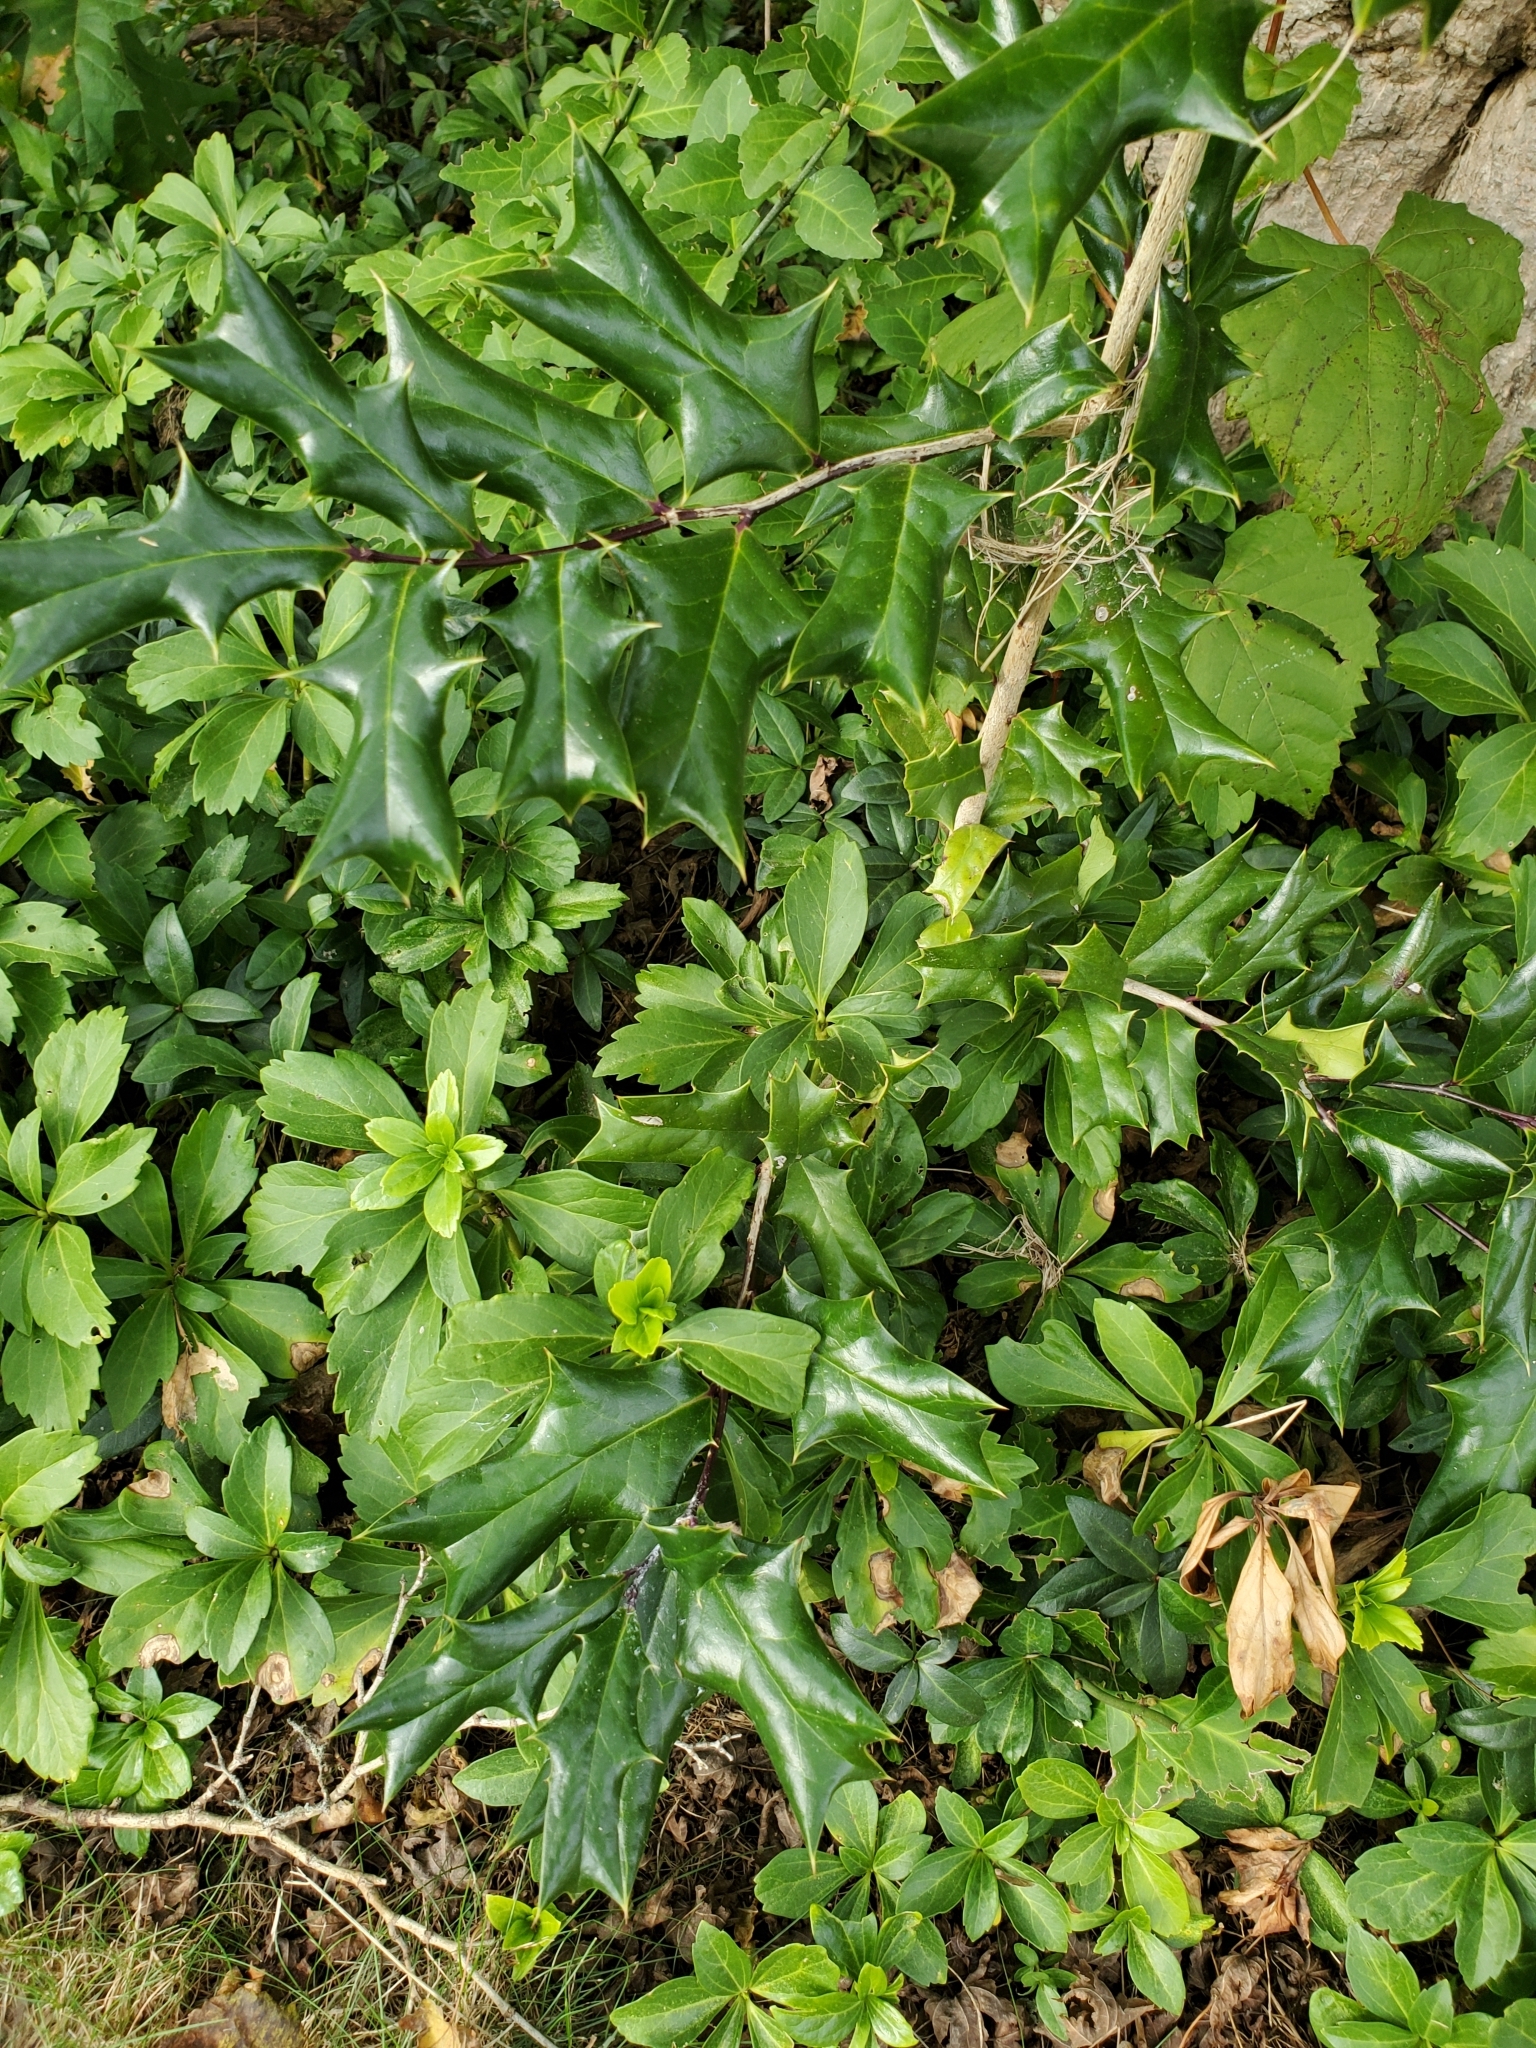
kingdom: Plantae
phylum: Tracheophyta
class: Magnoliopsida
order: Aquifoliales
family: Aquifoliaceae
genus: Ilex
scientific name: Ilex cornuta
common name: Chinese holly
